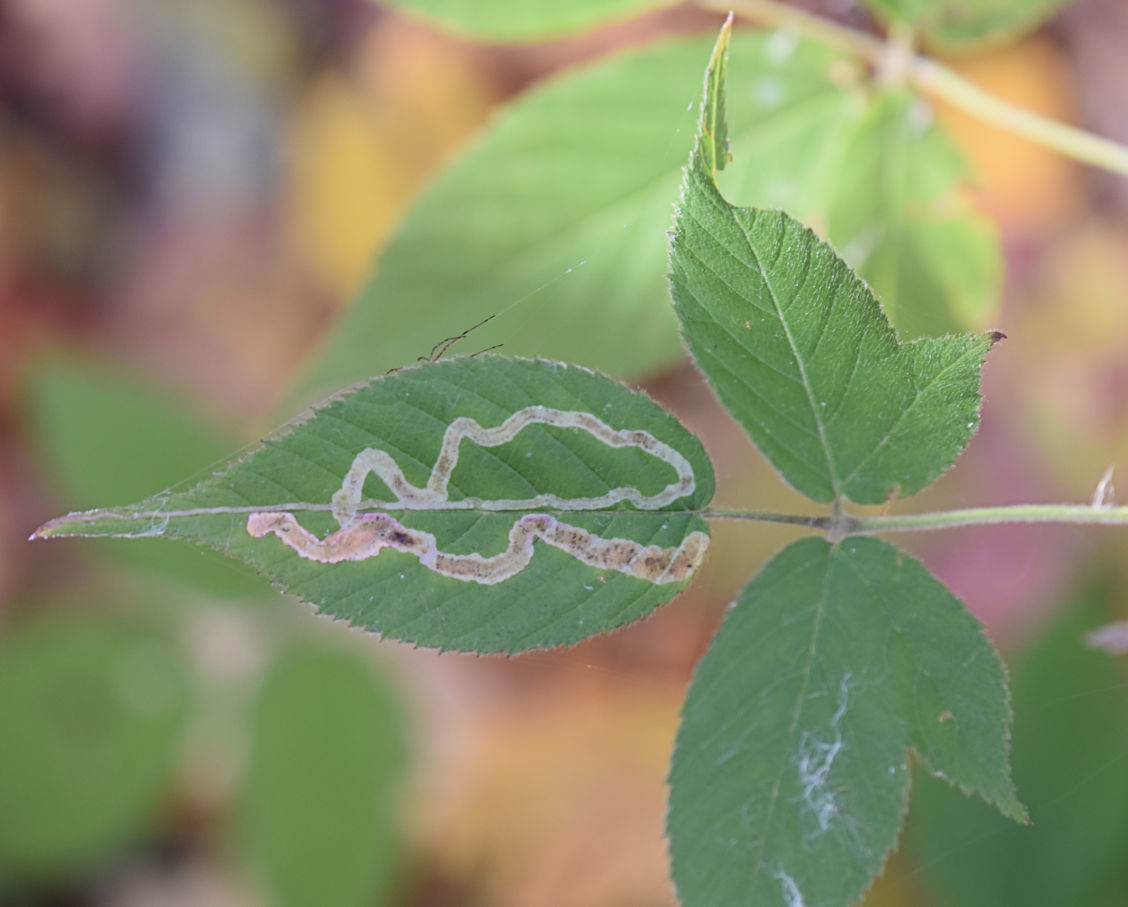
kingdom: Animalia
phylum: Arthropoda
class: Insecta
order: Diptera
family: Agromyzidae
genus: Agromyza
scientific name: Agromyza vockerothi
